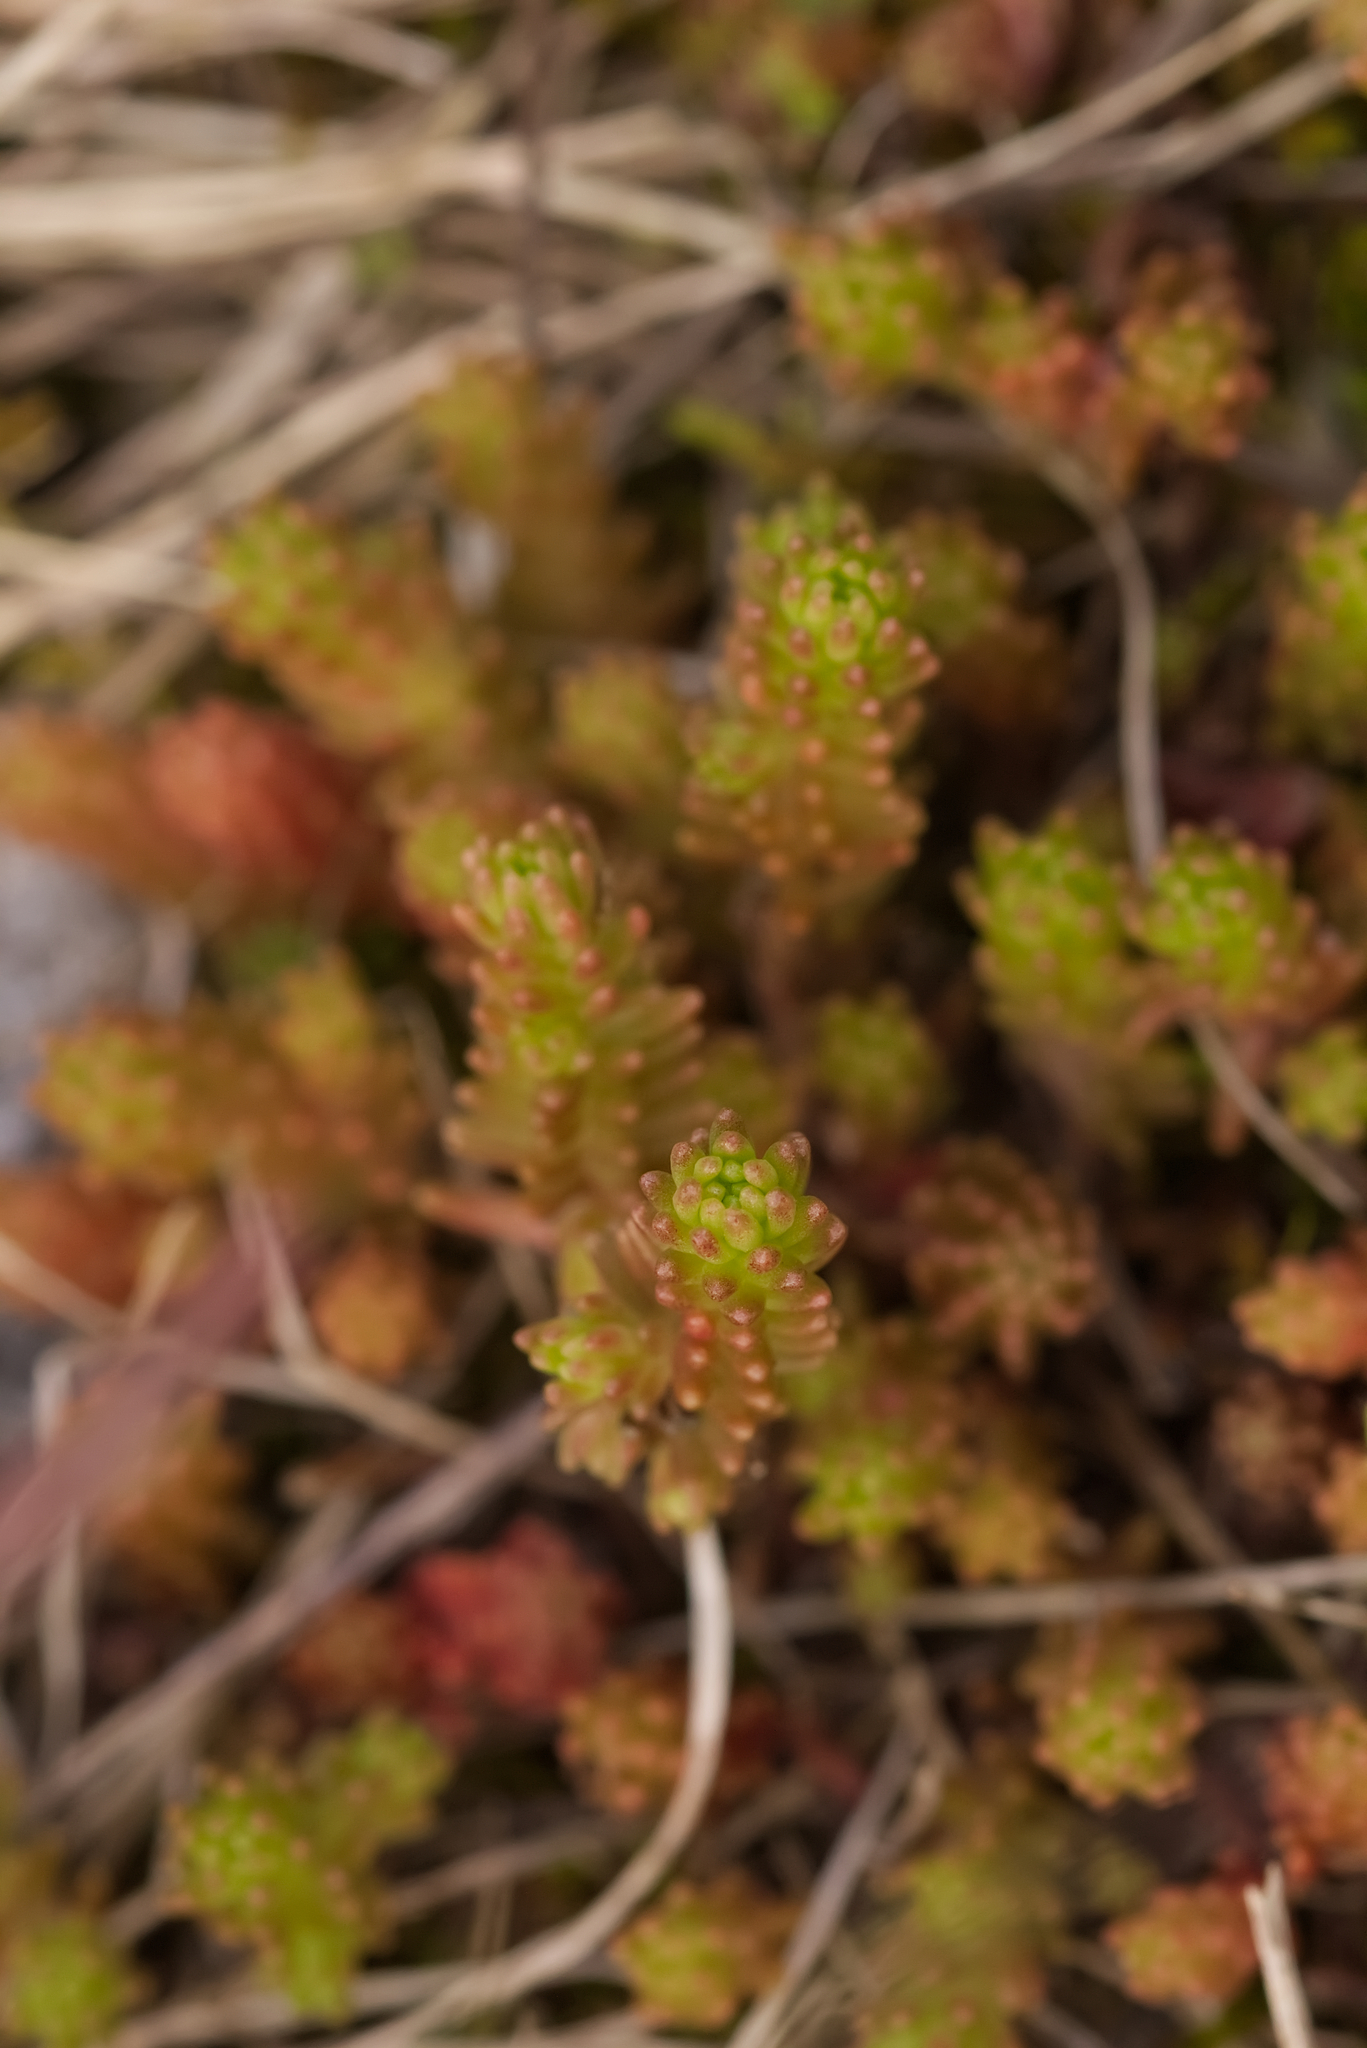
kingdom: Plantae
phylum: Tracheophyta
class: Magnoliopsida
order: Saxifragales
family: Crassulaceae
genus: Sedum
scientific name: Sedum sexangulare
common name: Tasteless stonecrop
